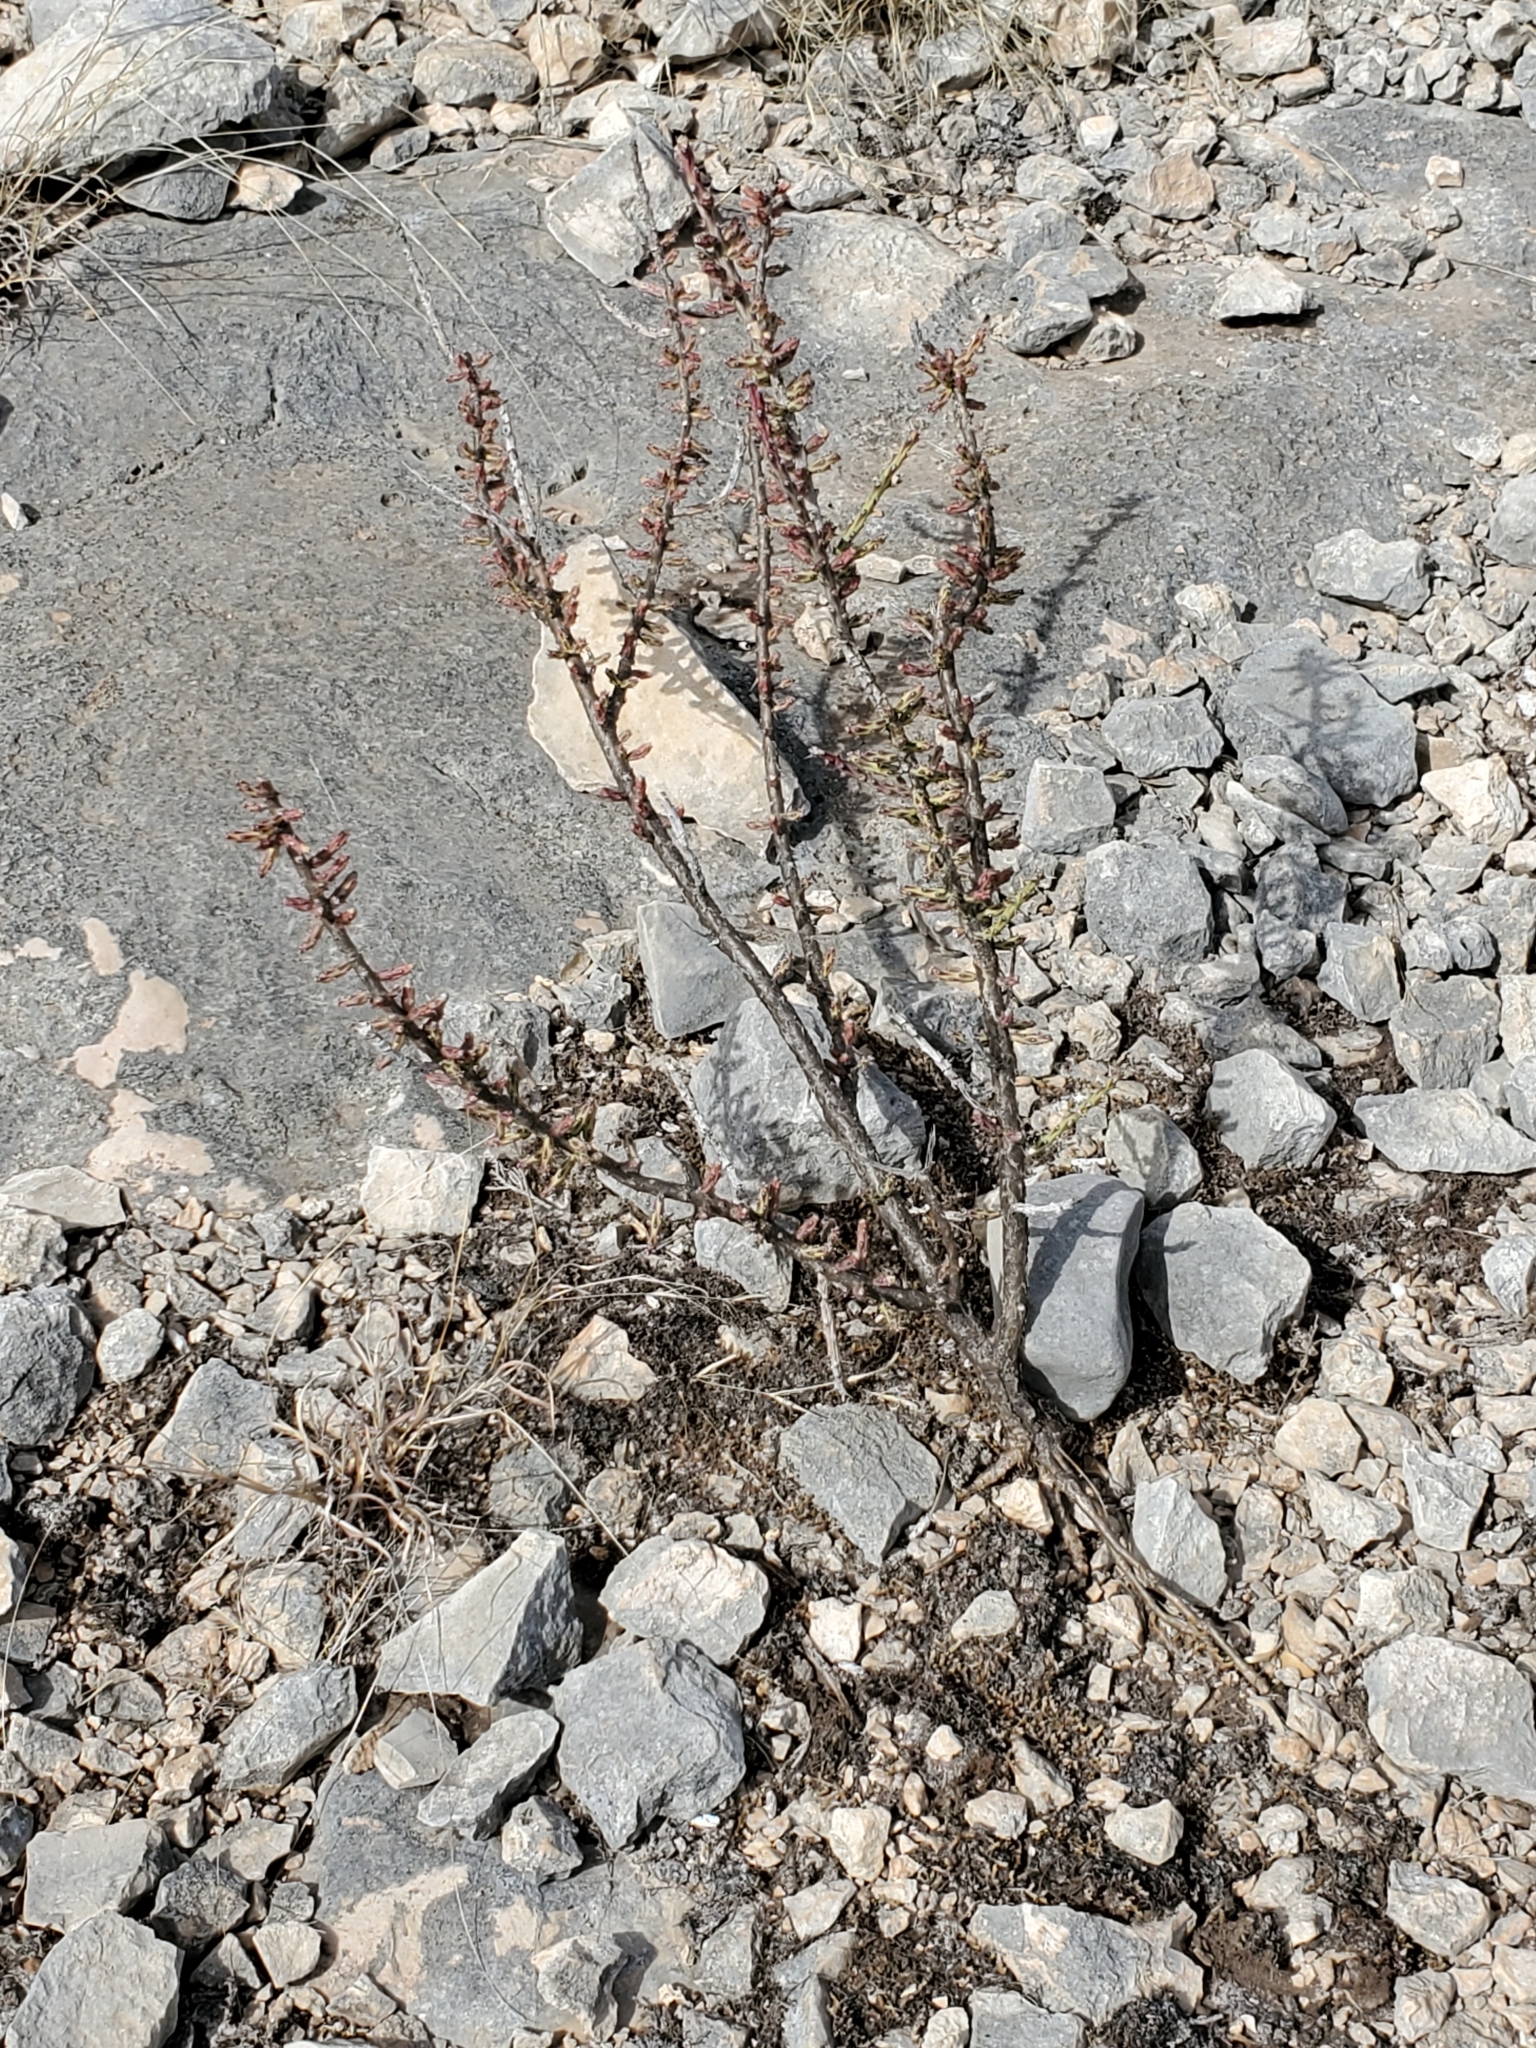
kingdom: Plantae
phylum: Tracheophyta
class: Magnoliopsida
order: Caryophyllales
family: Cactaceae
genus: Cylindropuntia
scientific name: Cylindropuntia leptocaulis
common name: Christmas cactus
